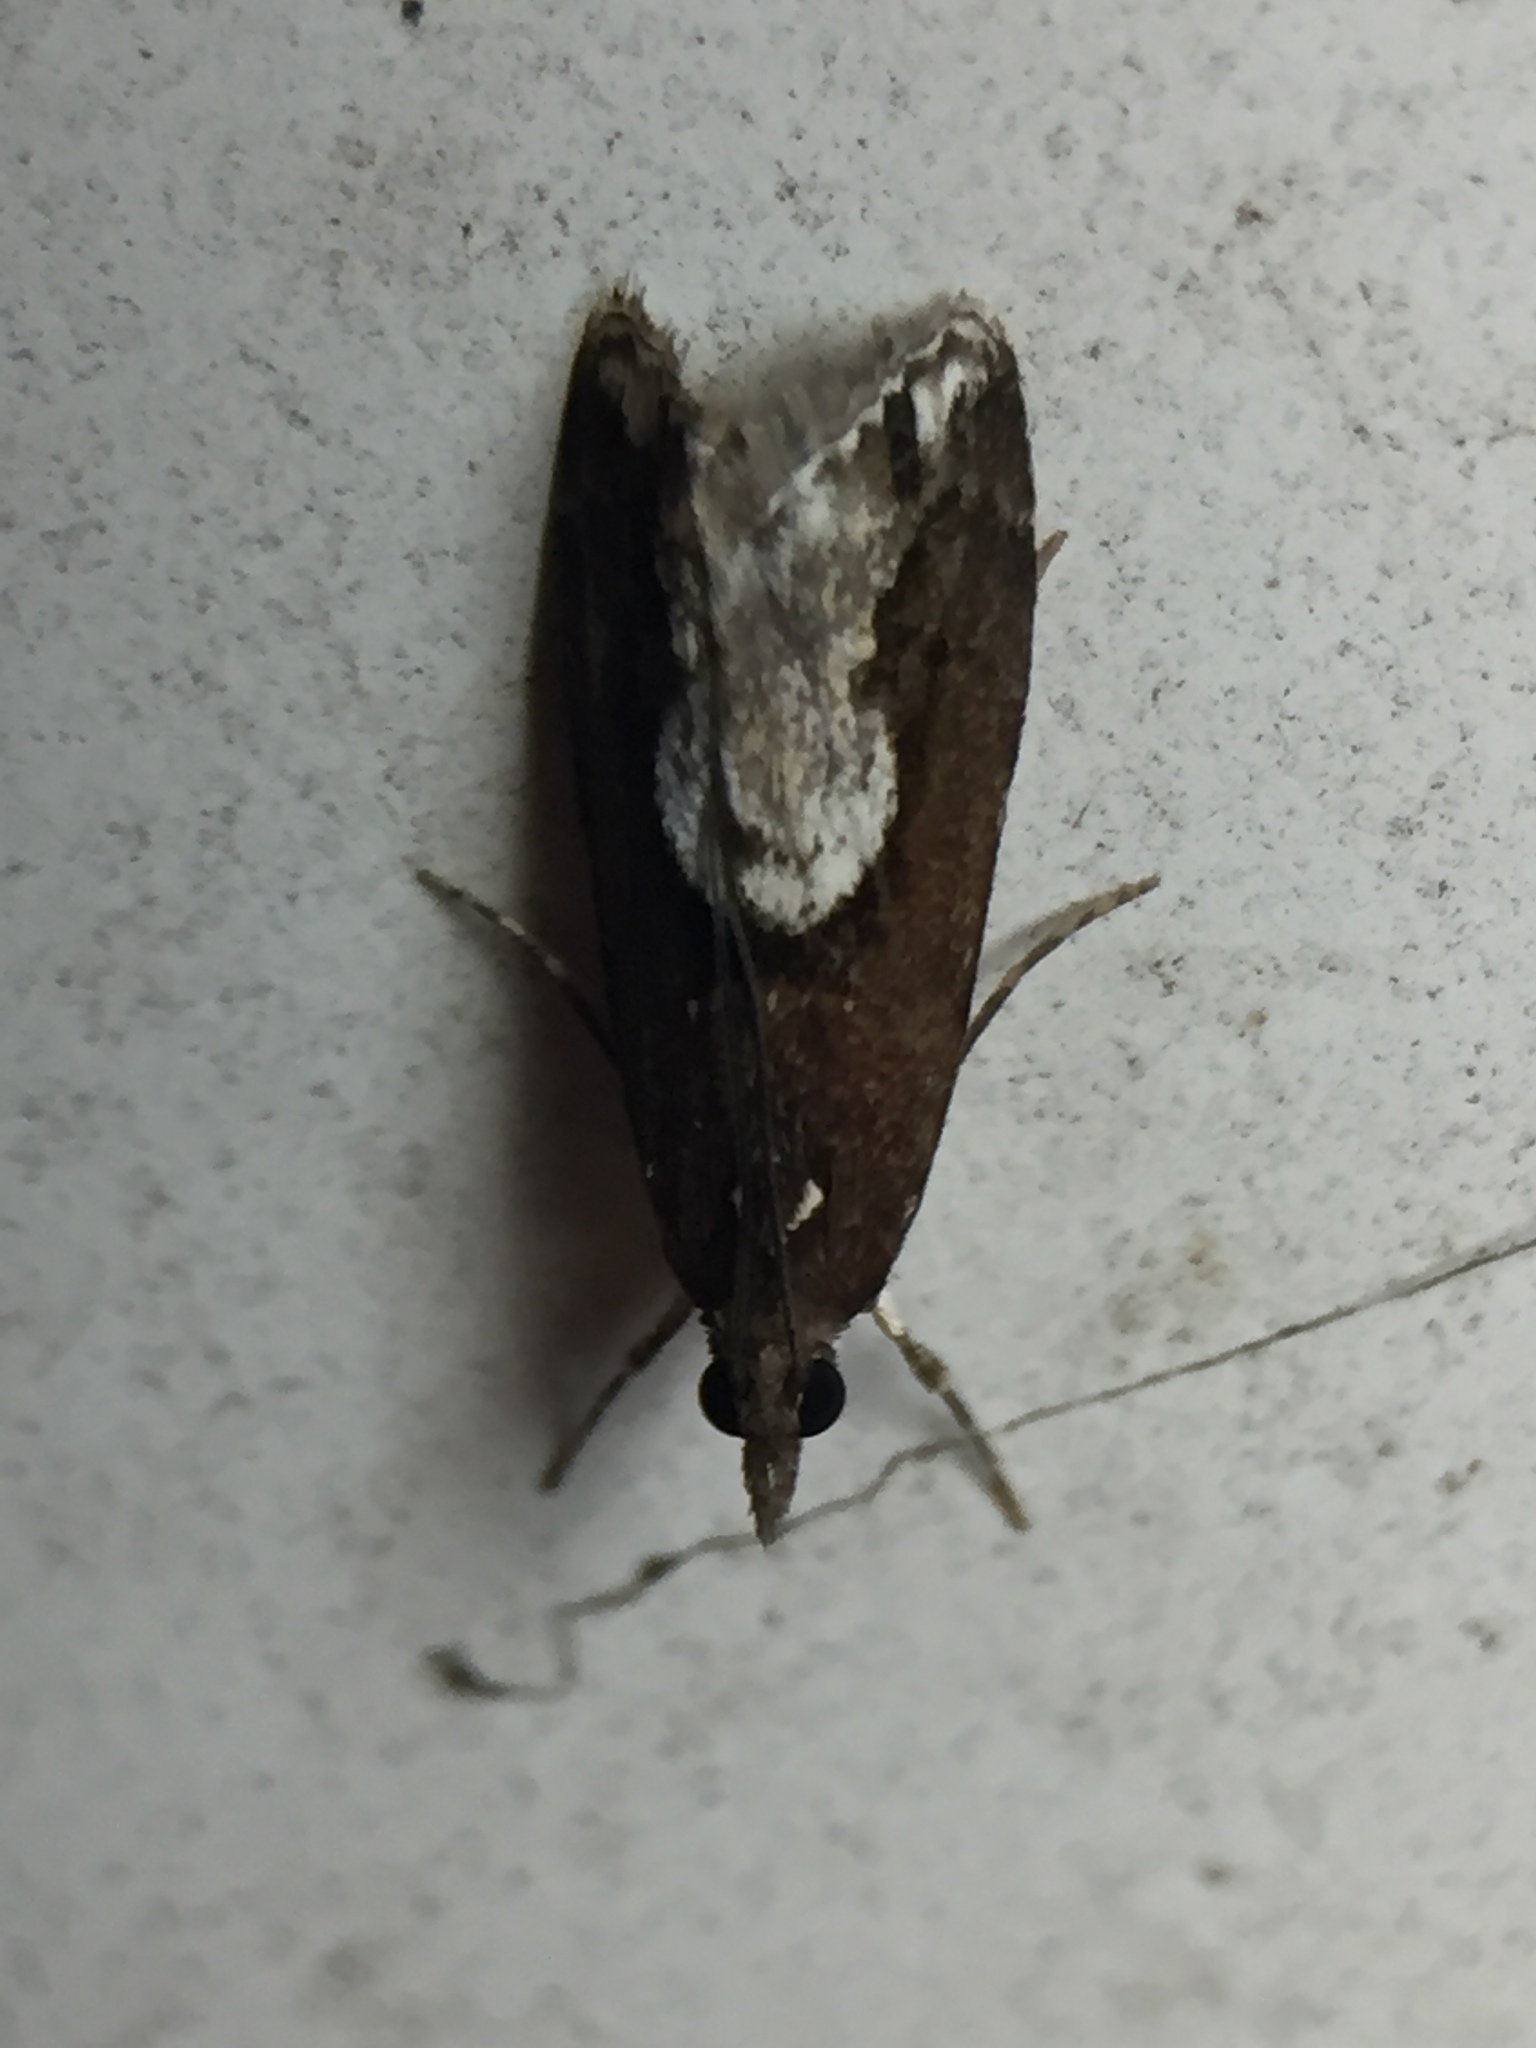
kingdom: Animalia
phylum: Arthropoda
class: Insecta
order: Lepidoptera
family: Crambidae
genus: Eudonia
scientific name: Eudonia hemiplaca
